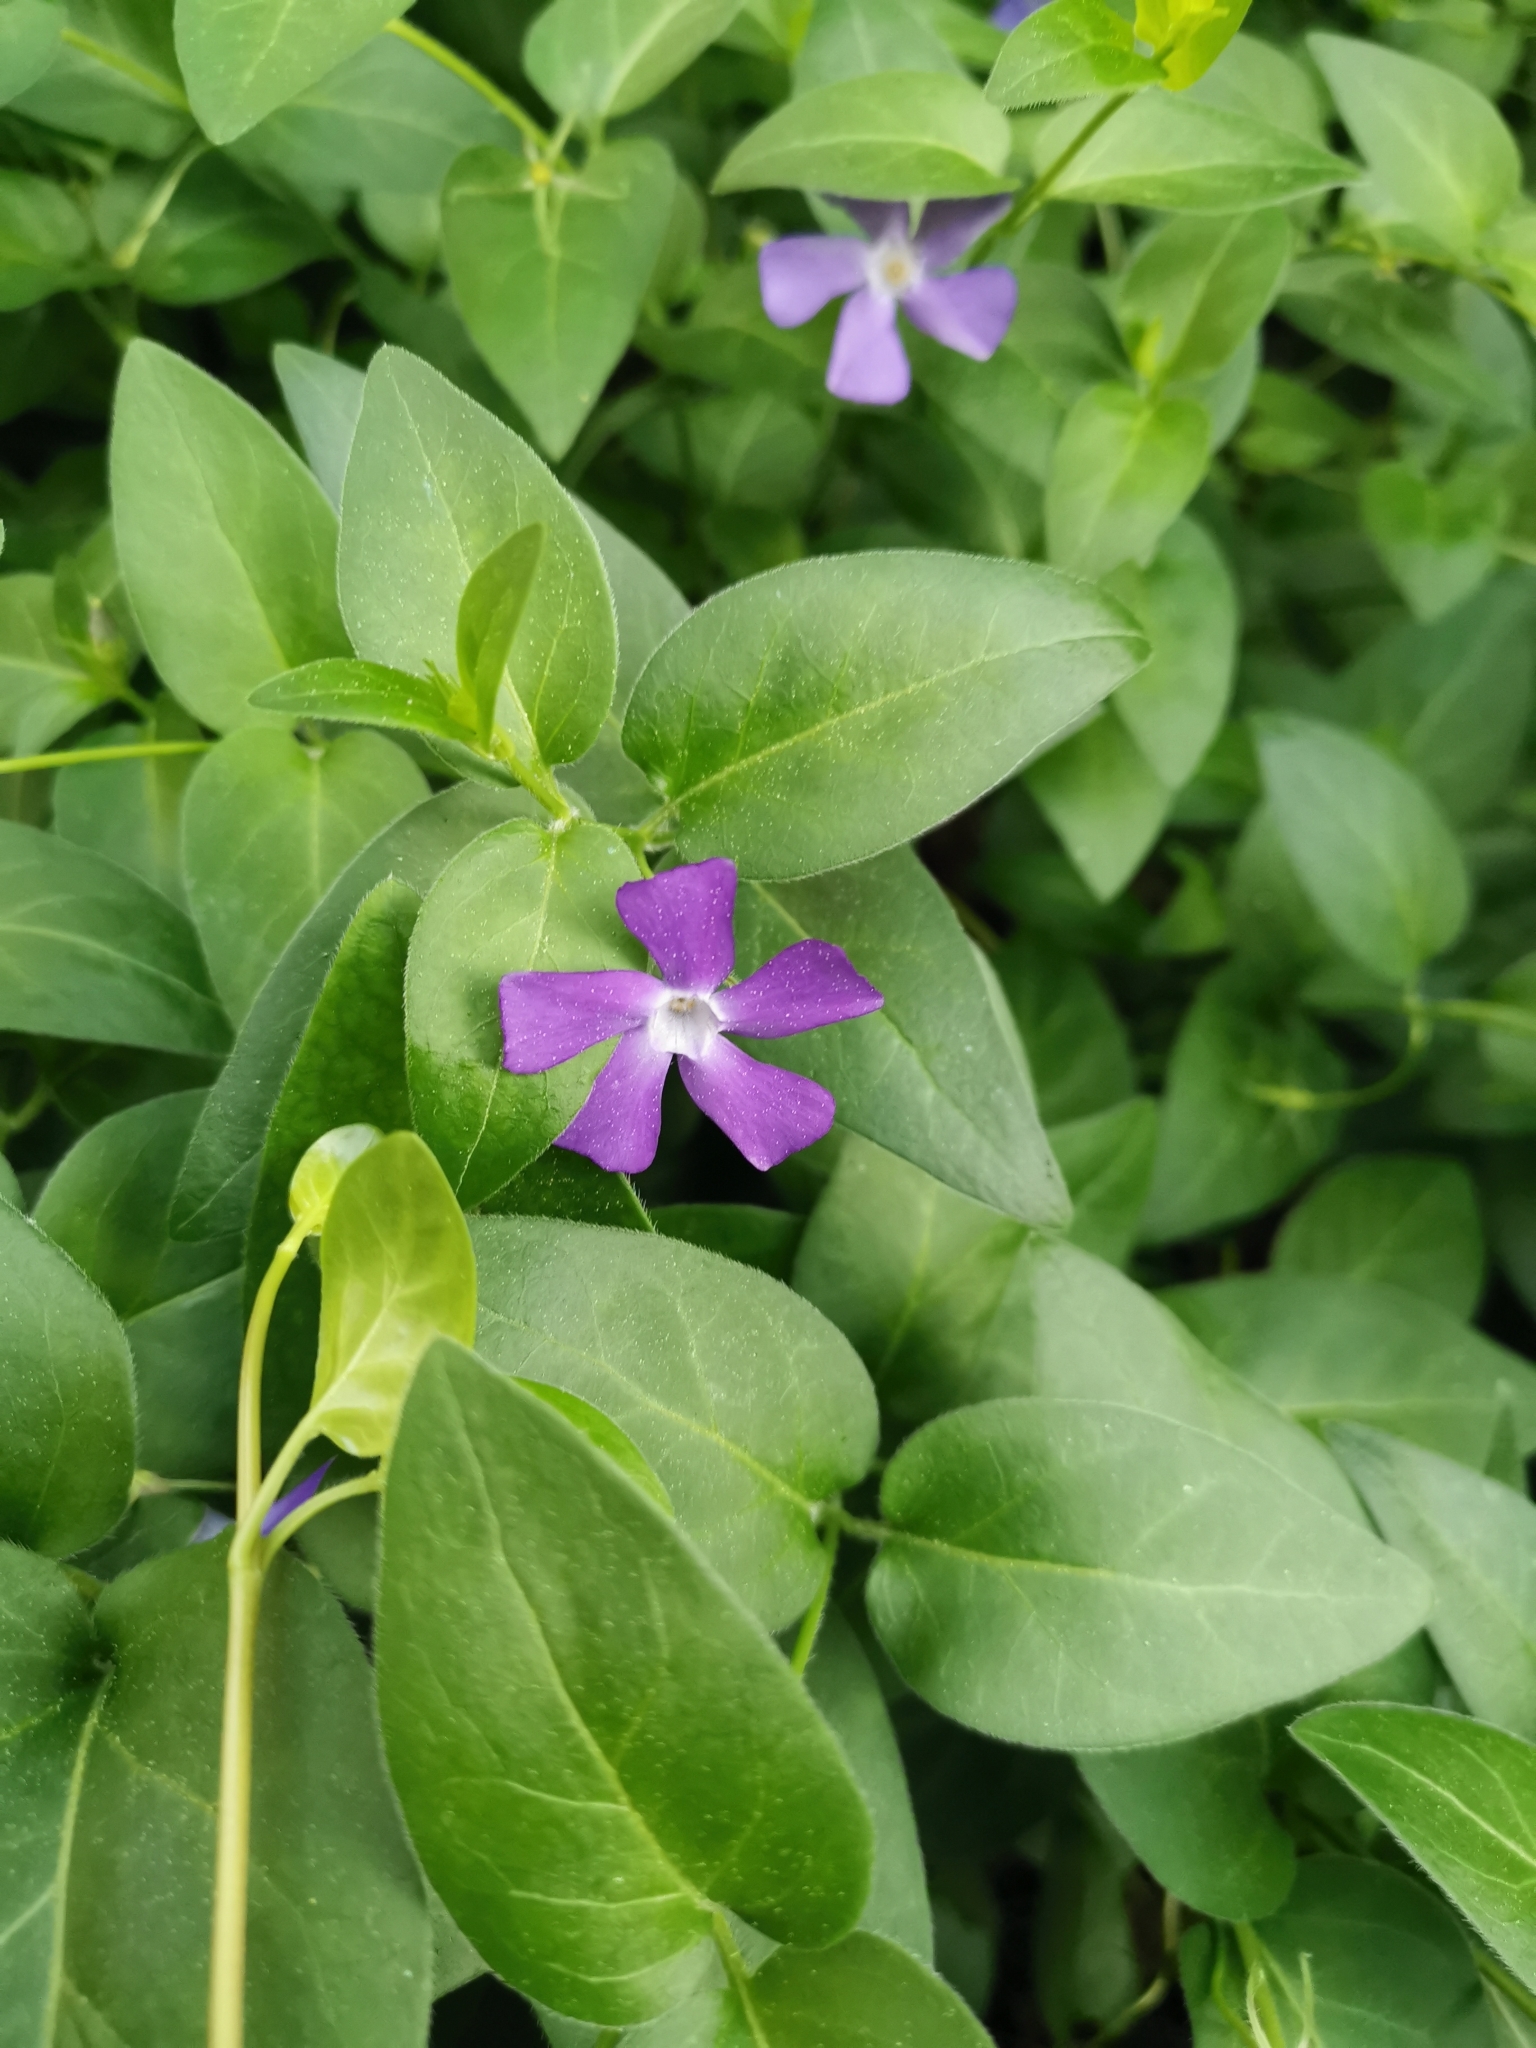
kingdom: Plantae
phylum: Tracheophyta
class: Magnoliopsida
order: Gentianales
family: Apocynaceae
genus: Vinca
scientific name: Vinca major
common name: Greater periwinkle
